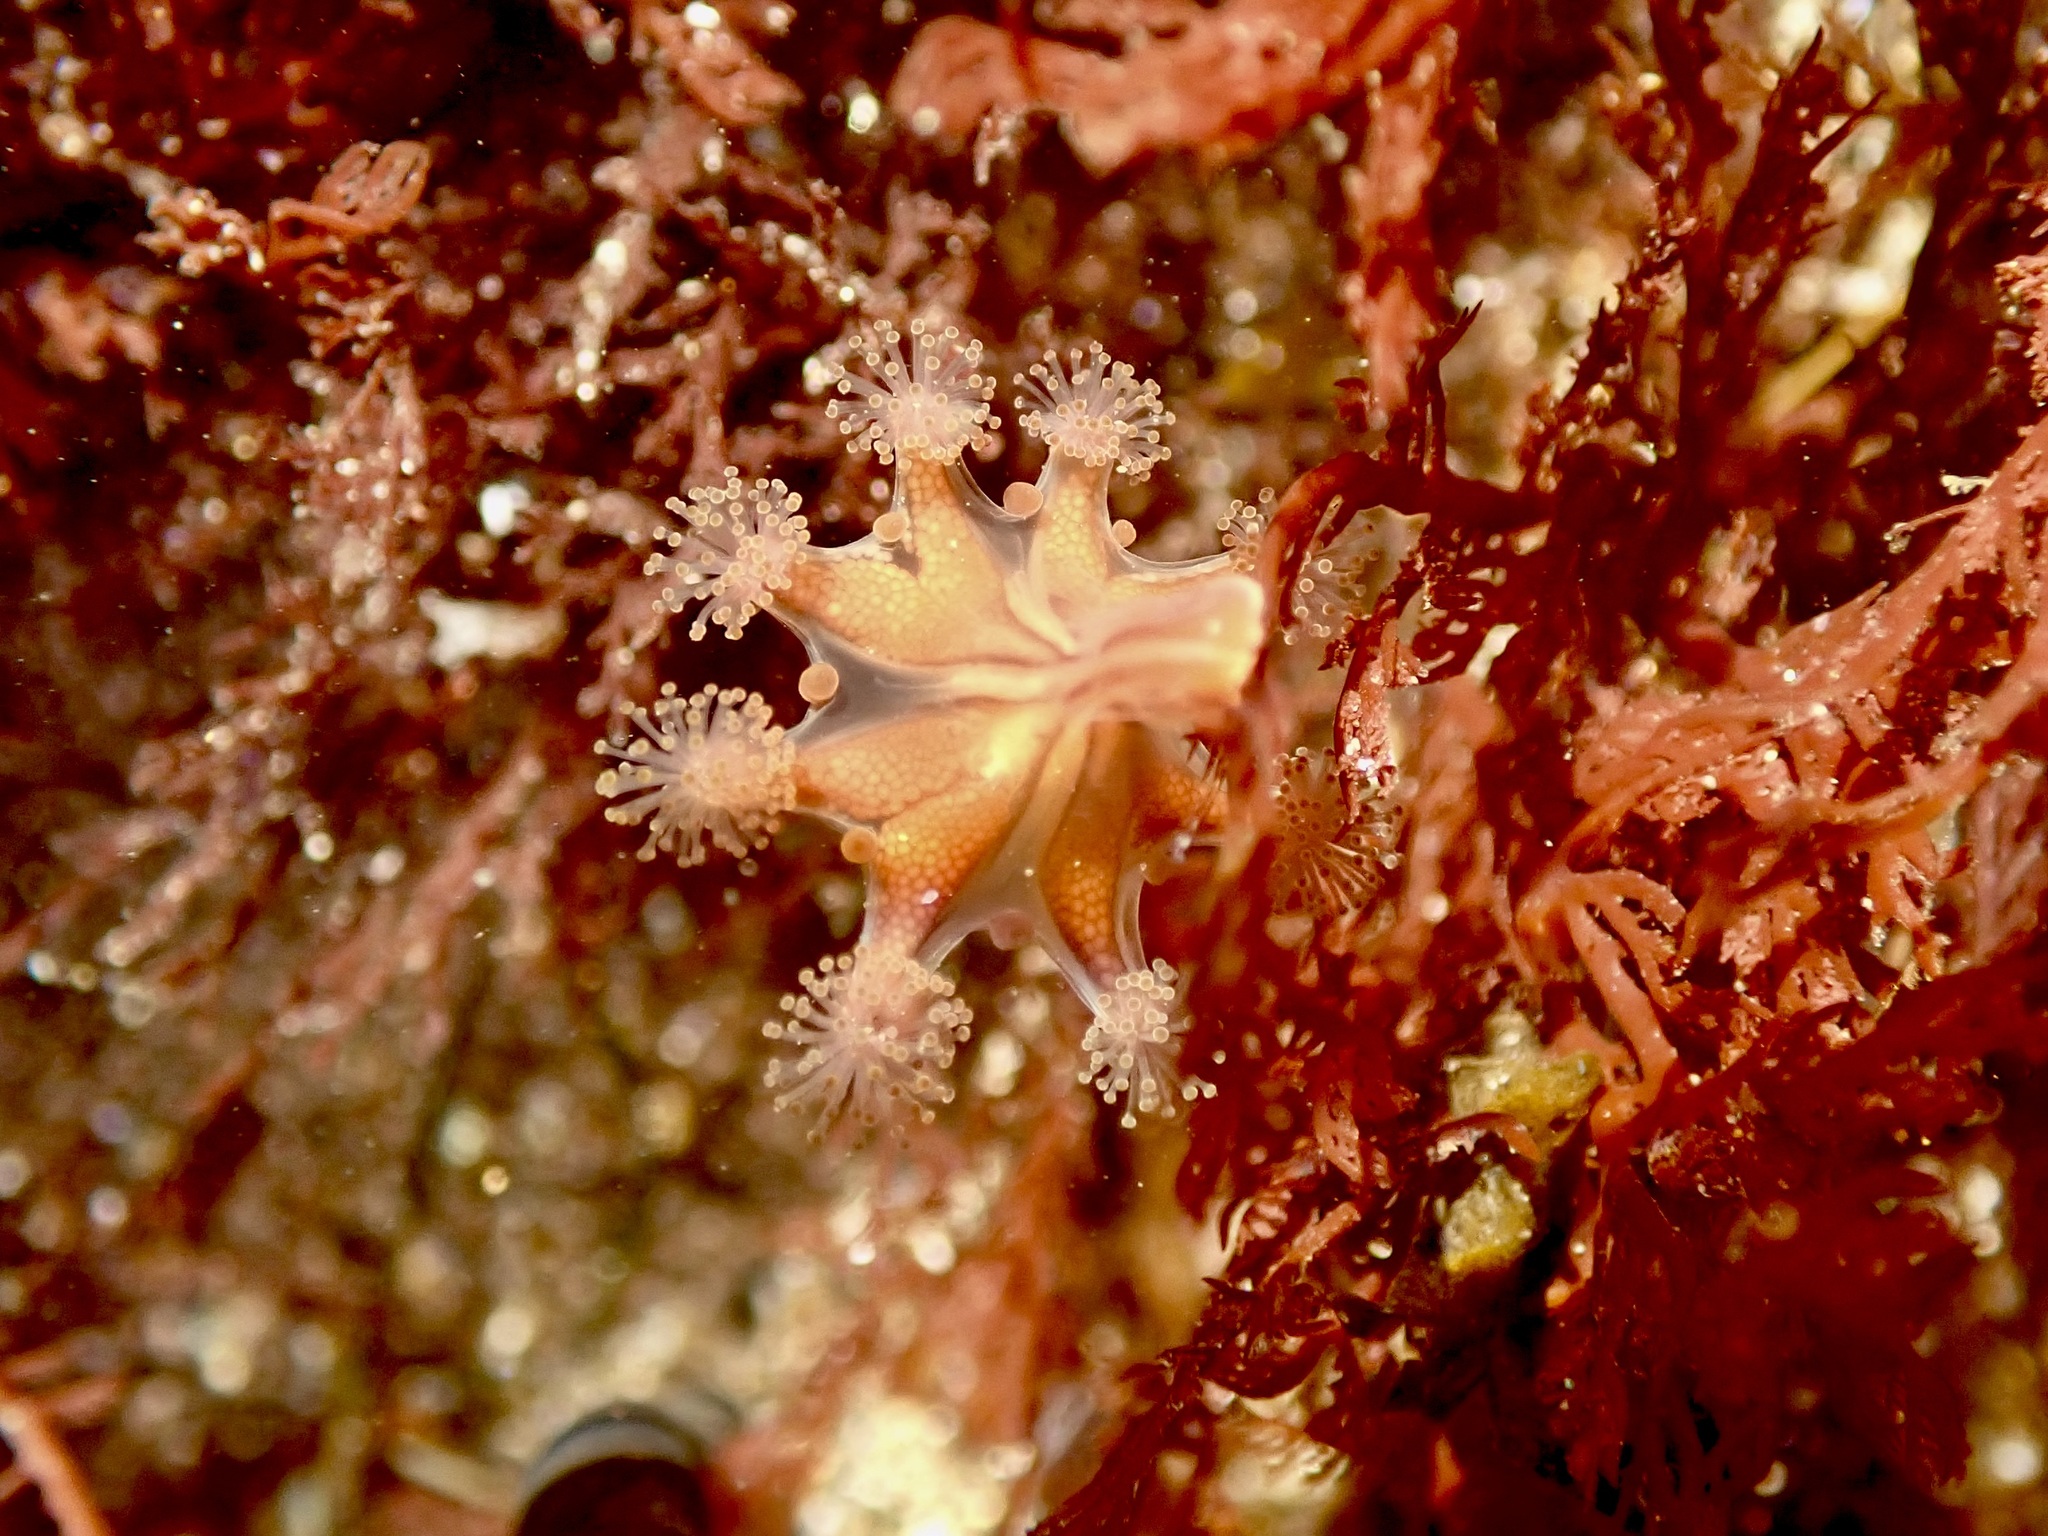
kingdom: Animalia
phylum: Cnidaria
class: Staurozoa
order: Stauromedusae
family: Haliclystidae
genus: Haliclystus
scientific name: Haliclystus sanjuanensis
